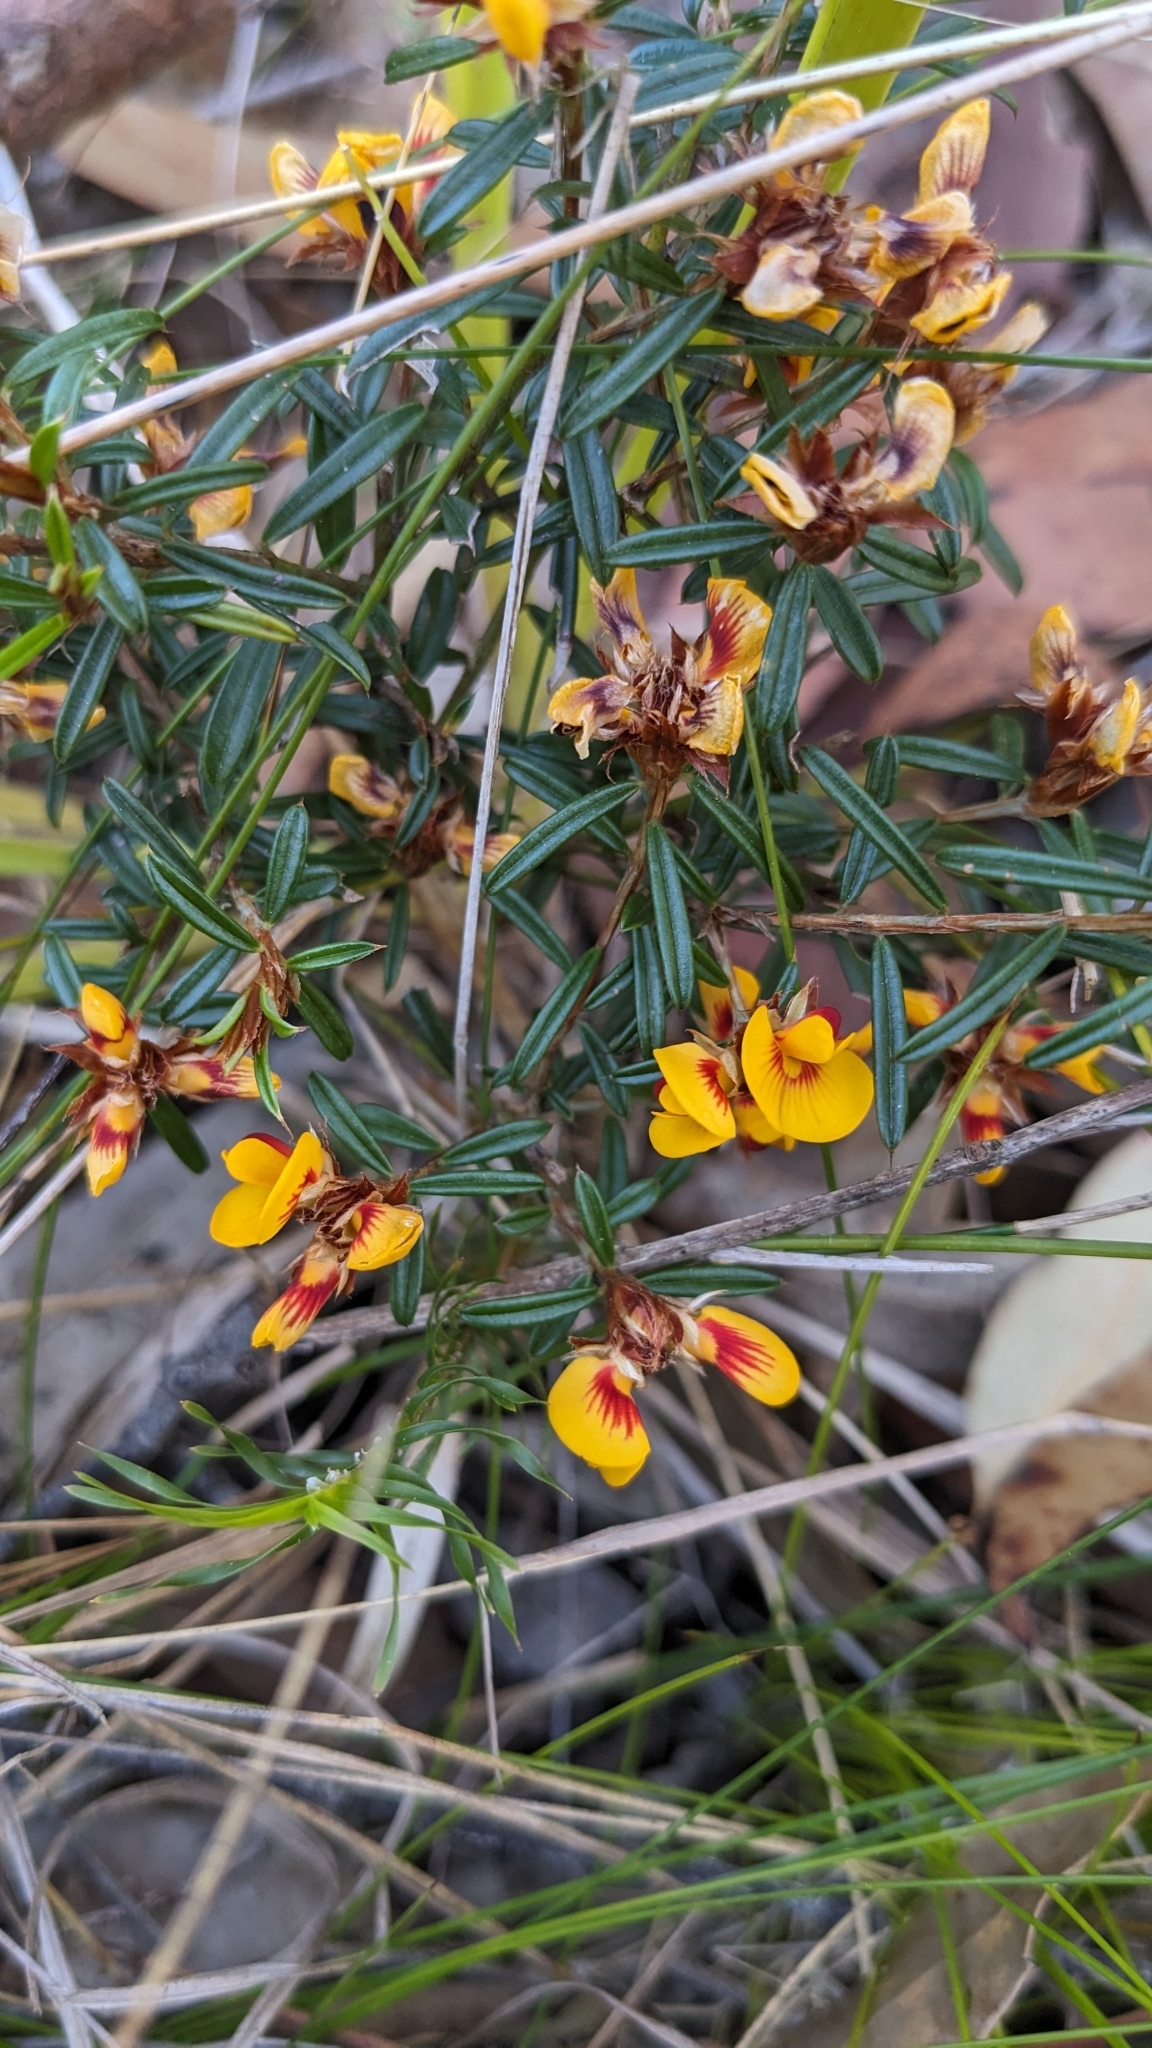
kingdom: Plantae
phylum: Tracheophyta
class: Magnoliopsida
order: Fabales
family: Fabaceae
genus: Pultenaea
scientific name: Pultenaea paleacea
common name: Chaffy bush-pea
